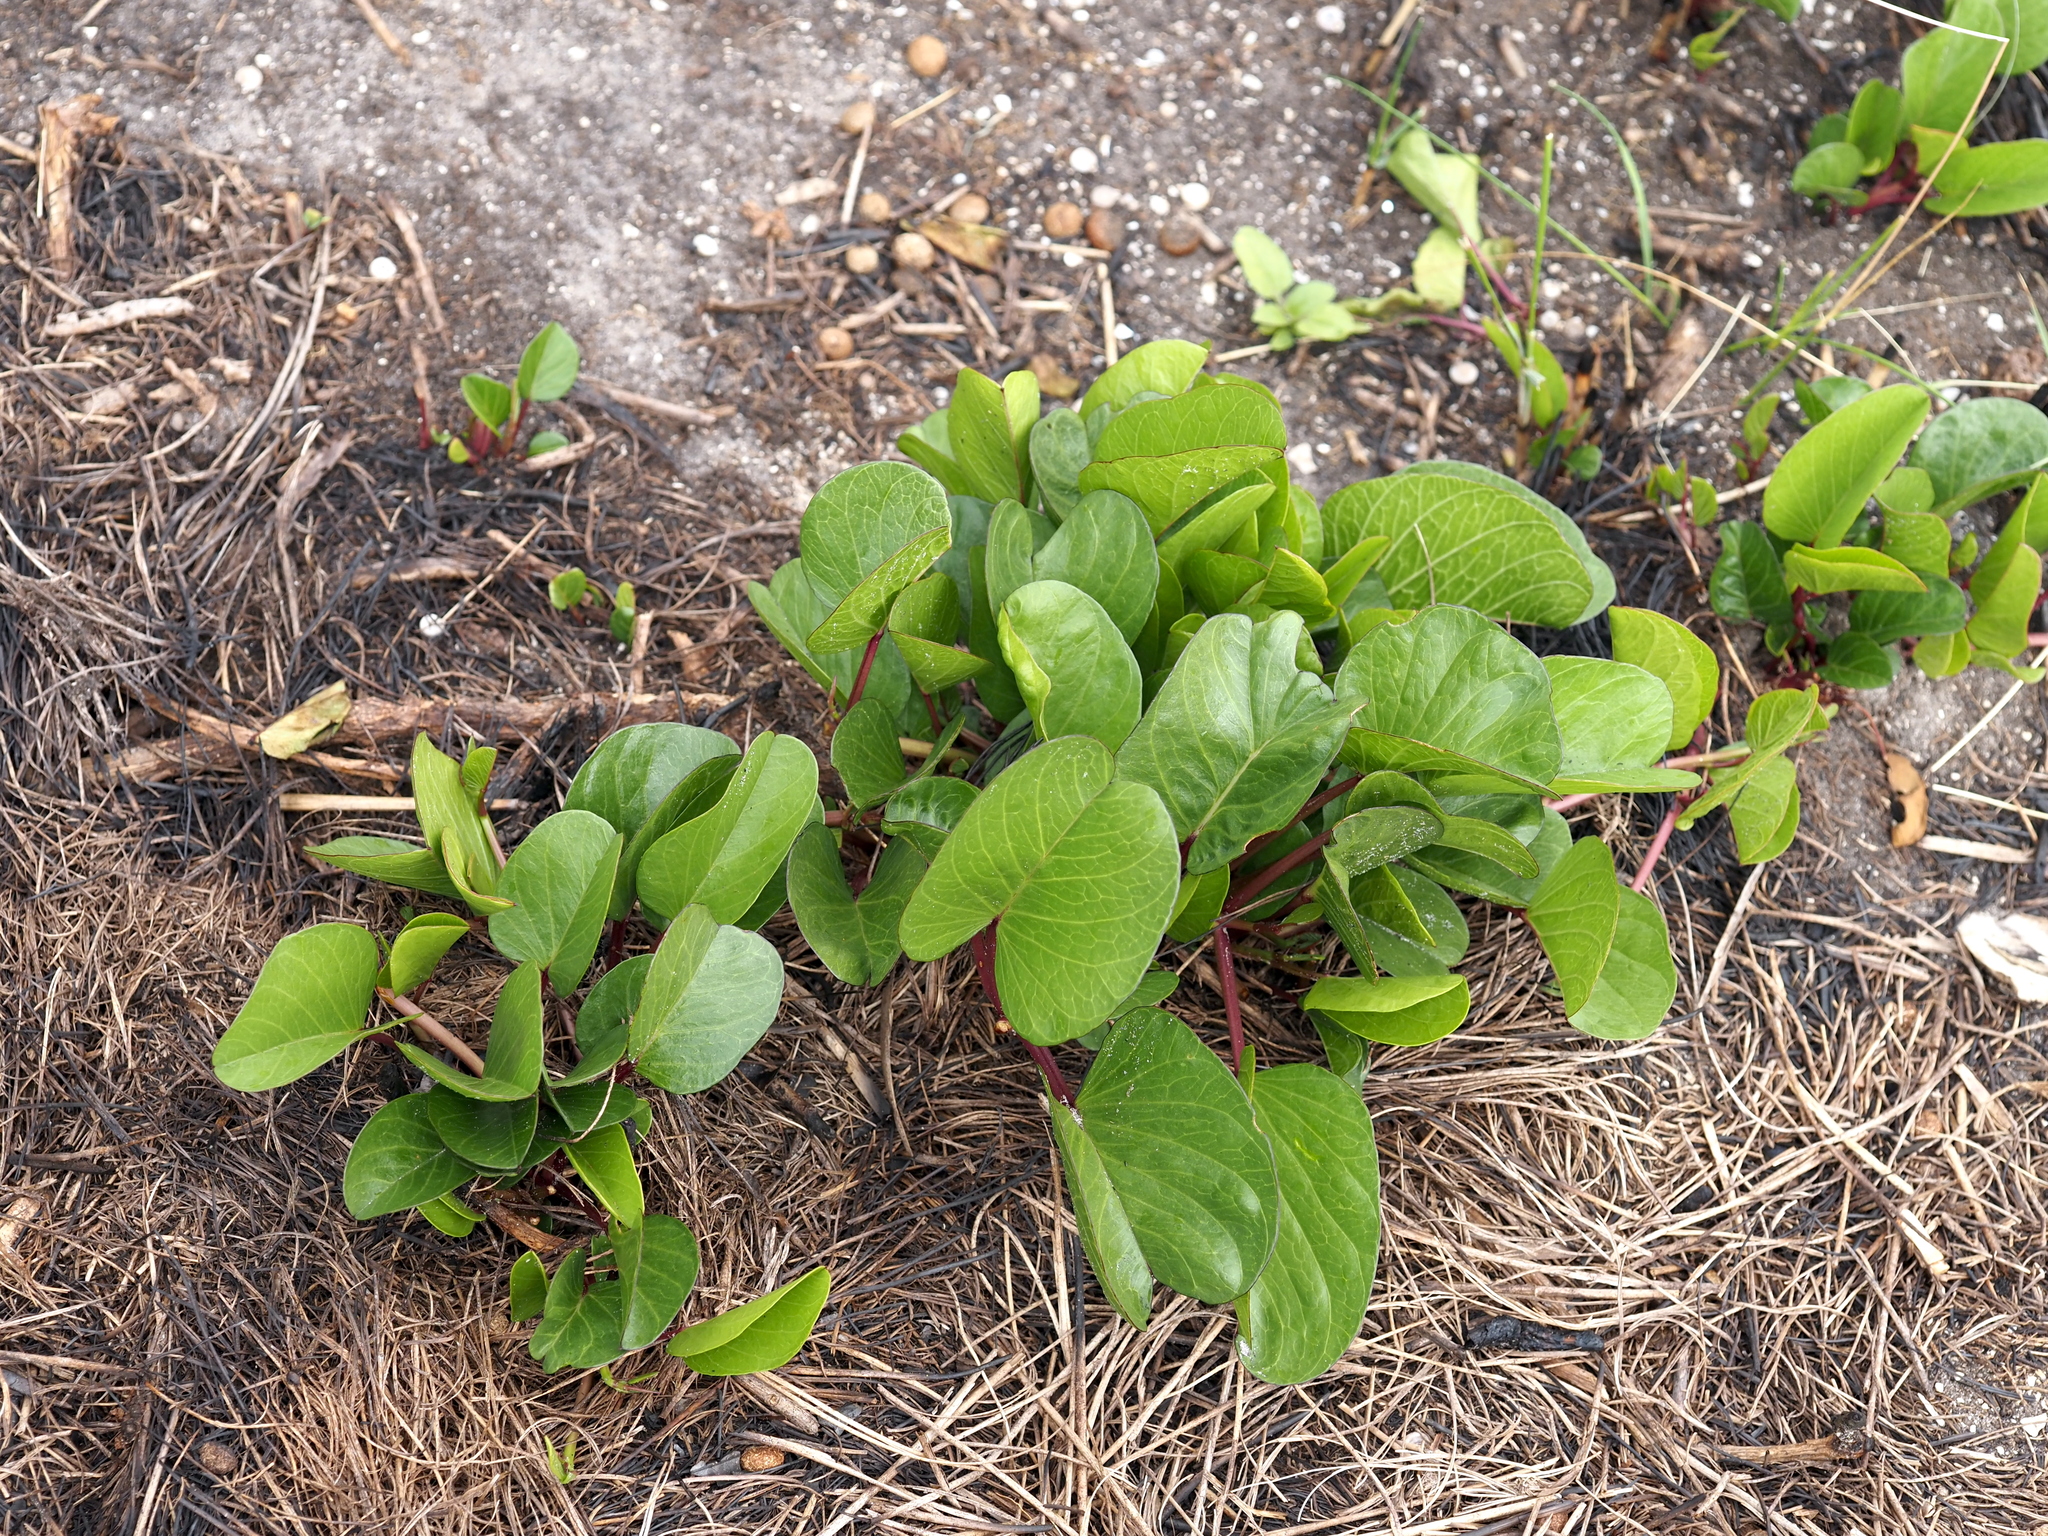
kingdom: Plantae
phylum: Tracheophyta
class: Magnoliopsida
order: Solanales
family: Convolvulaceae
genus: Ipomoea
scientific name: Ipomoea pes-caprae
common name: Beach morning glory
